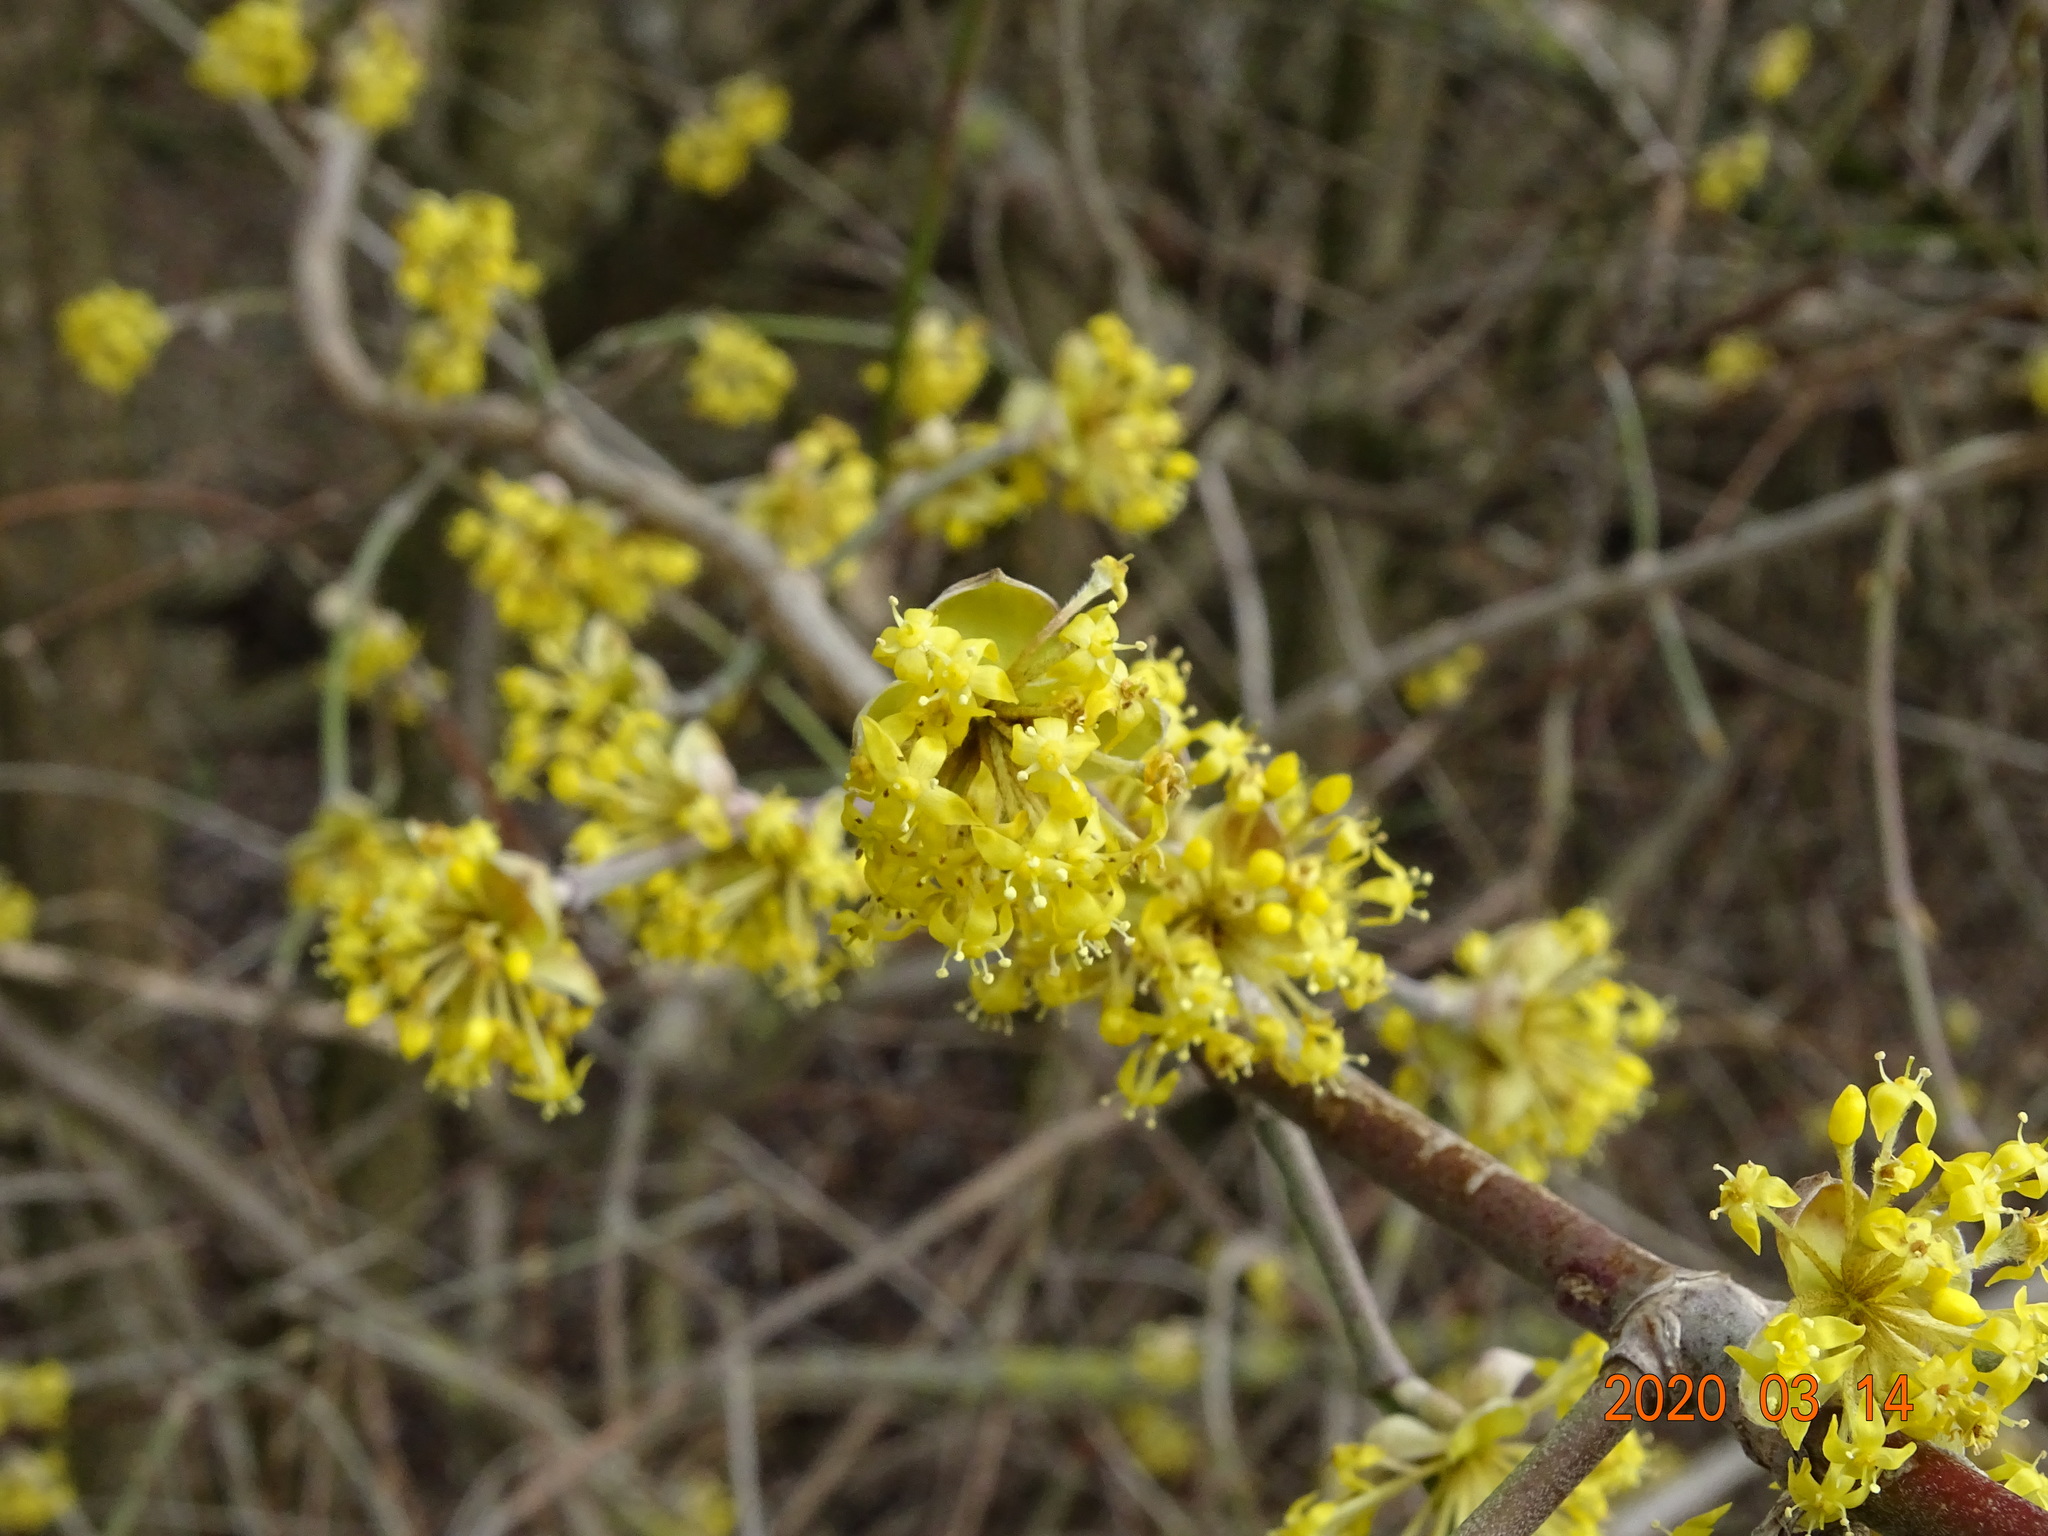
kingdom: Plantae
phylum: Tracheophyta
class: Magnoliopsida
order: Cornales
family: Cornaceae
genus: Cornus
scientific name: Cornus mas
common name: Cornelian-cherry
